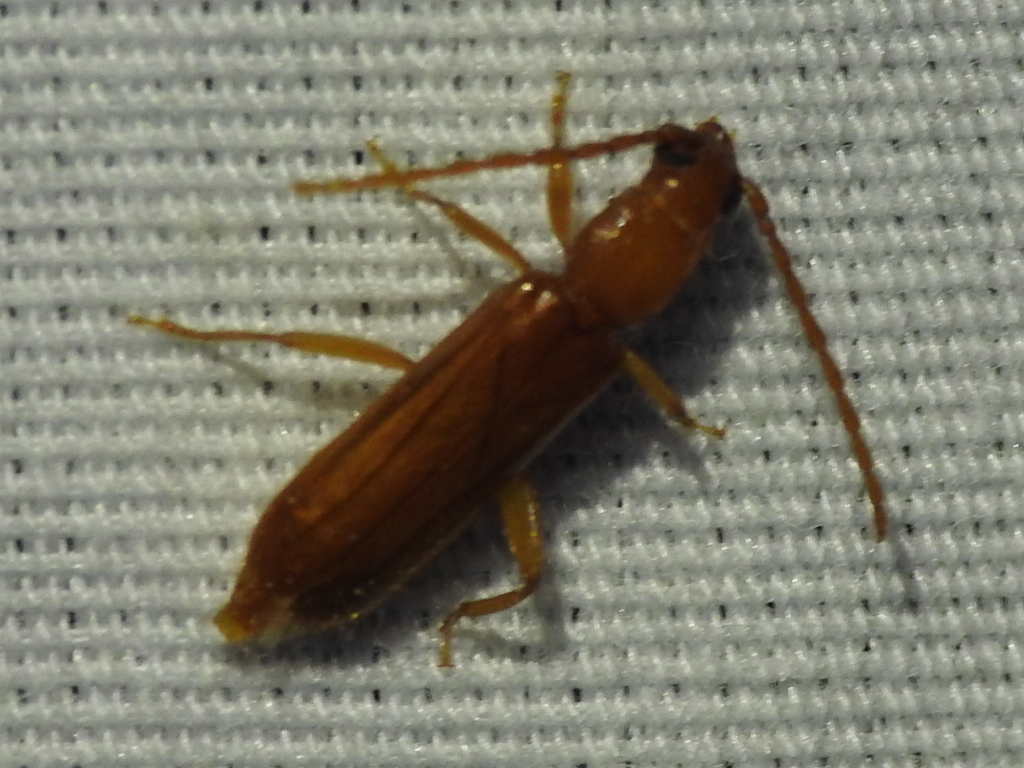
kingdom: Animalia
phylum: Arthropoda
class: Insecta
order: Coleoptera
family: Cerambycidae
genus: Smodicum
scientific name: Smodicum cucujiforme
